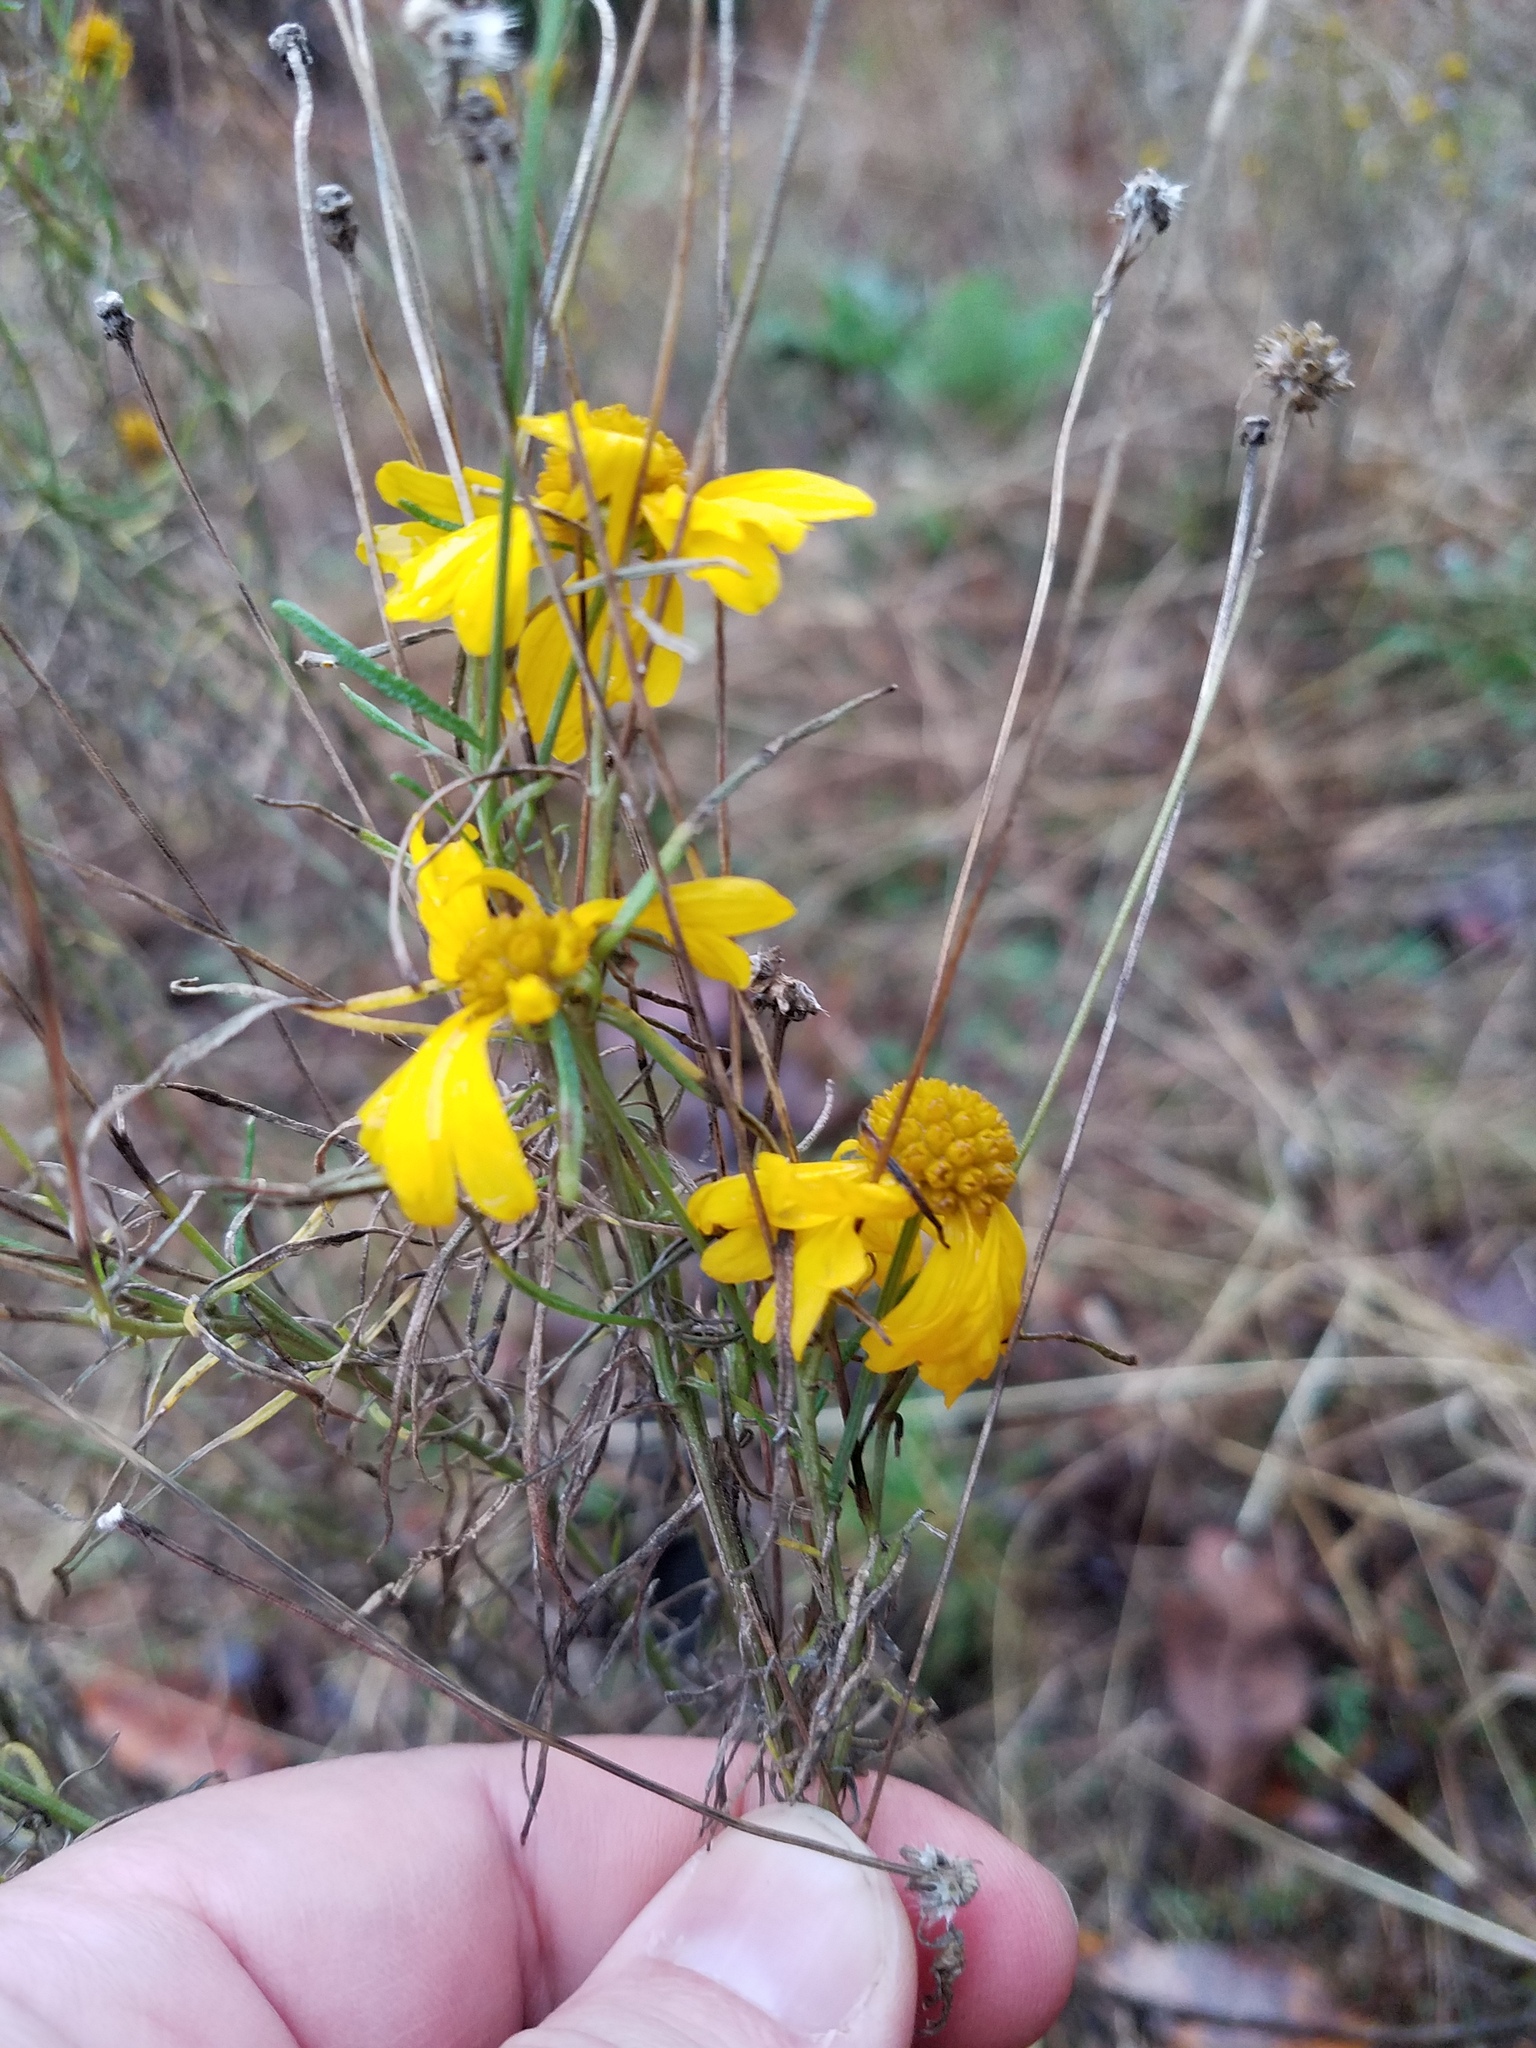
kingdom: Plantae
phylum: Tracheophyta
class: Magnoliopsida
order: Asterales
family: Asteraceae
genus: Helenium
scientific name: Helenium amarum
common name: Bitter sneezeweed
